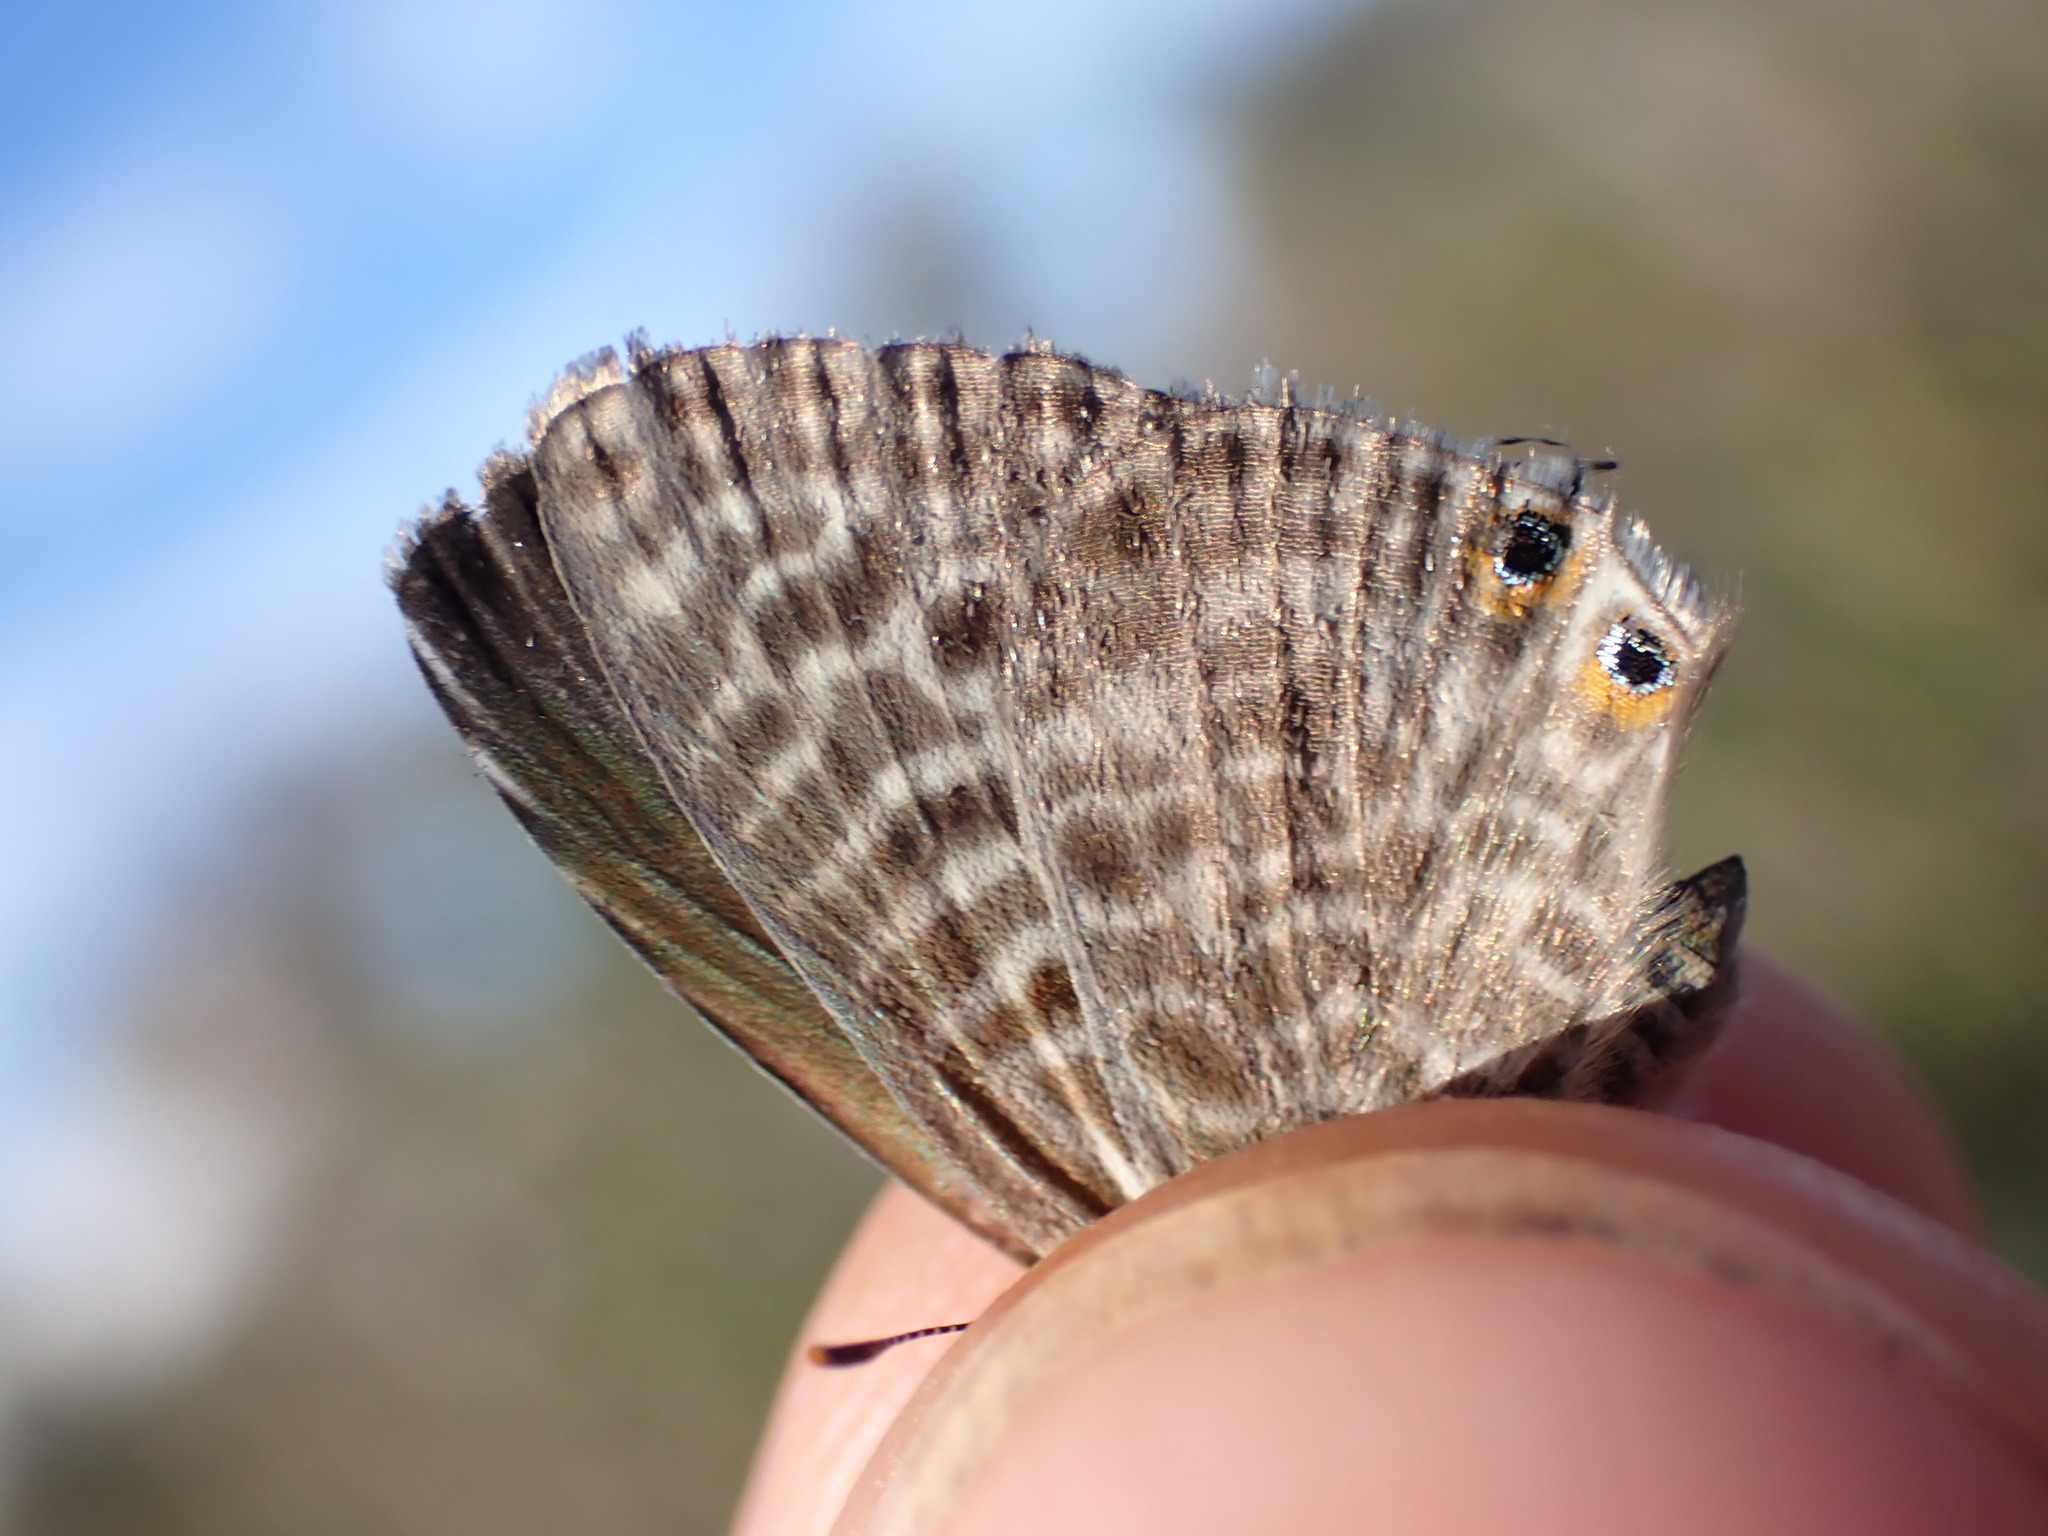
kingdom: Animalia
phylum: Arthropoda
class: Insecta
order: Lepidoptera
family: Lycaenidae
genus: Leptotes
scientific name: Leptotes pirithous
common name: Lang's short-tailed blue
